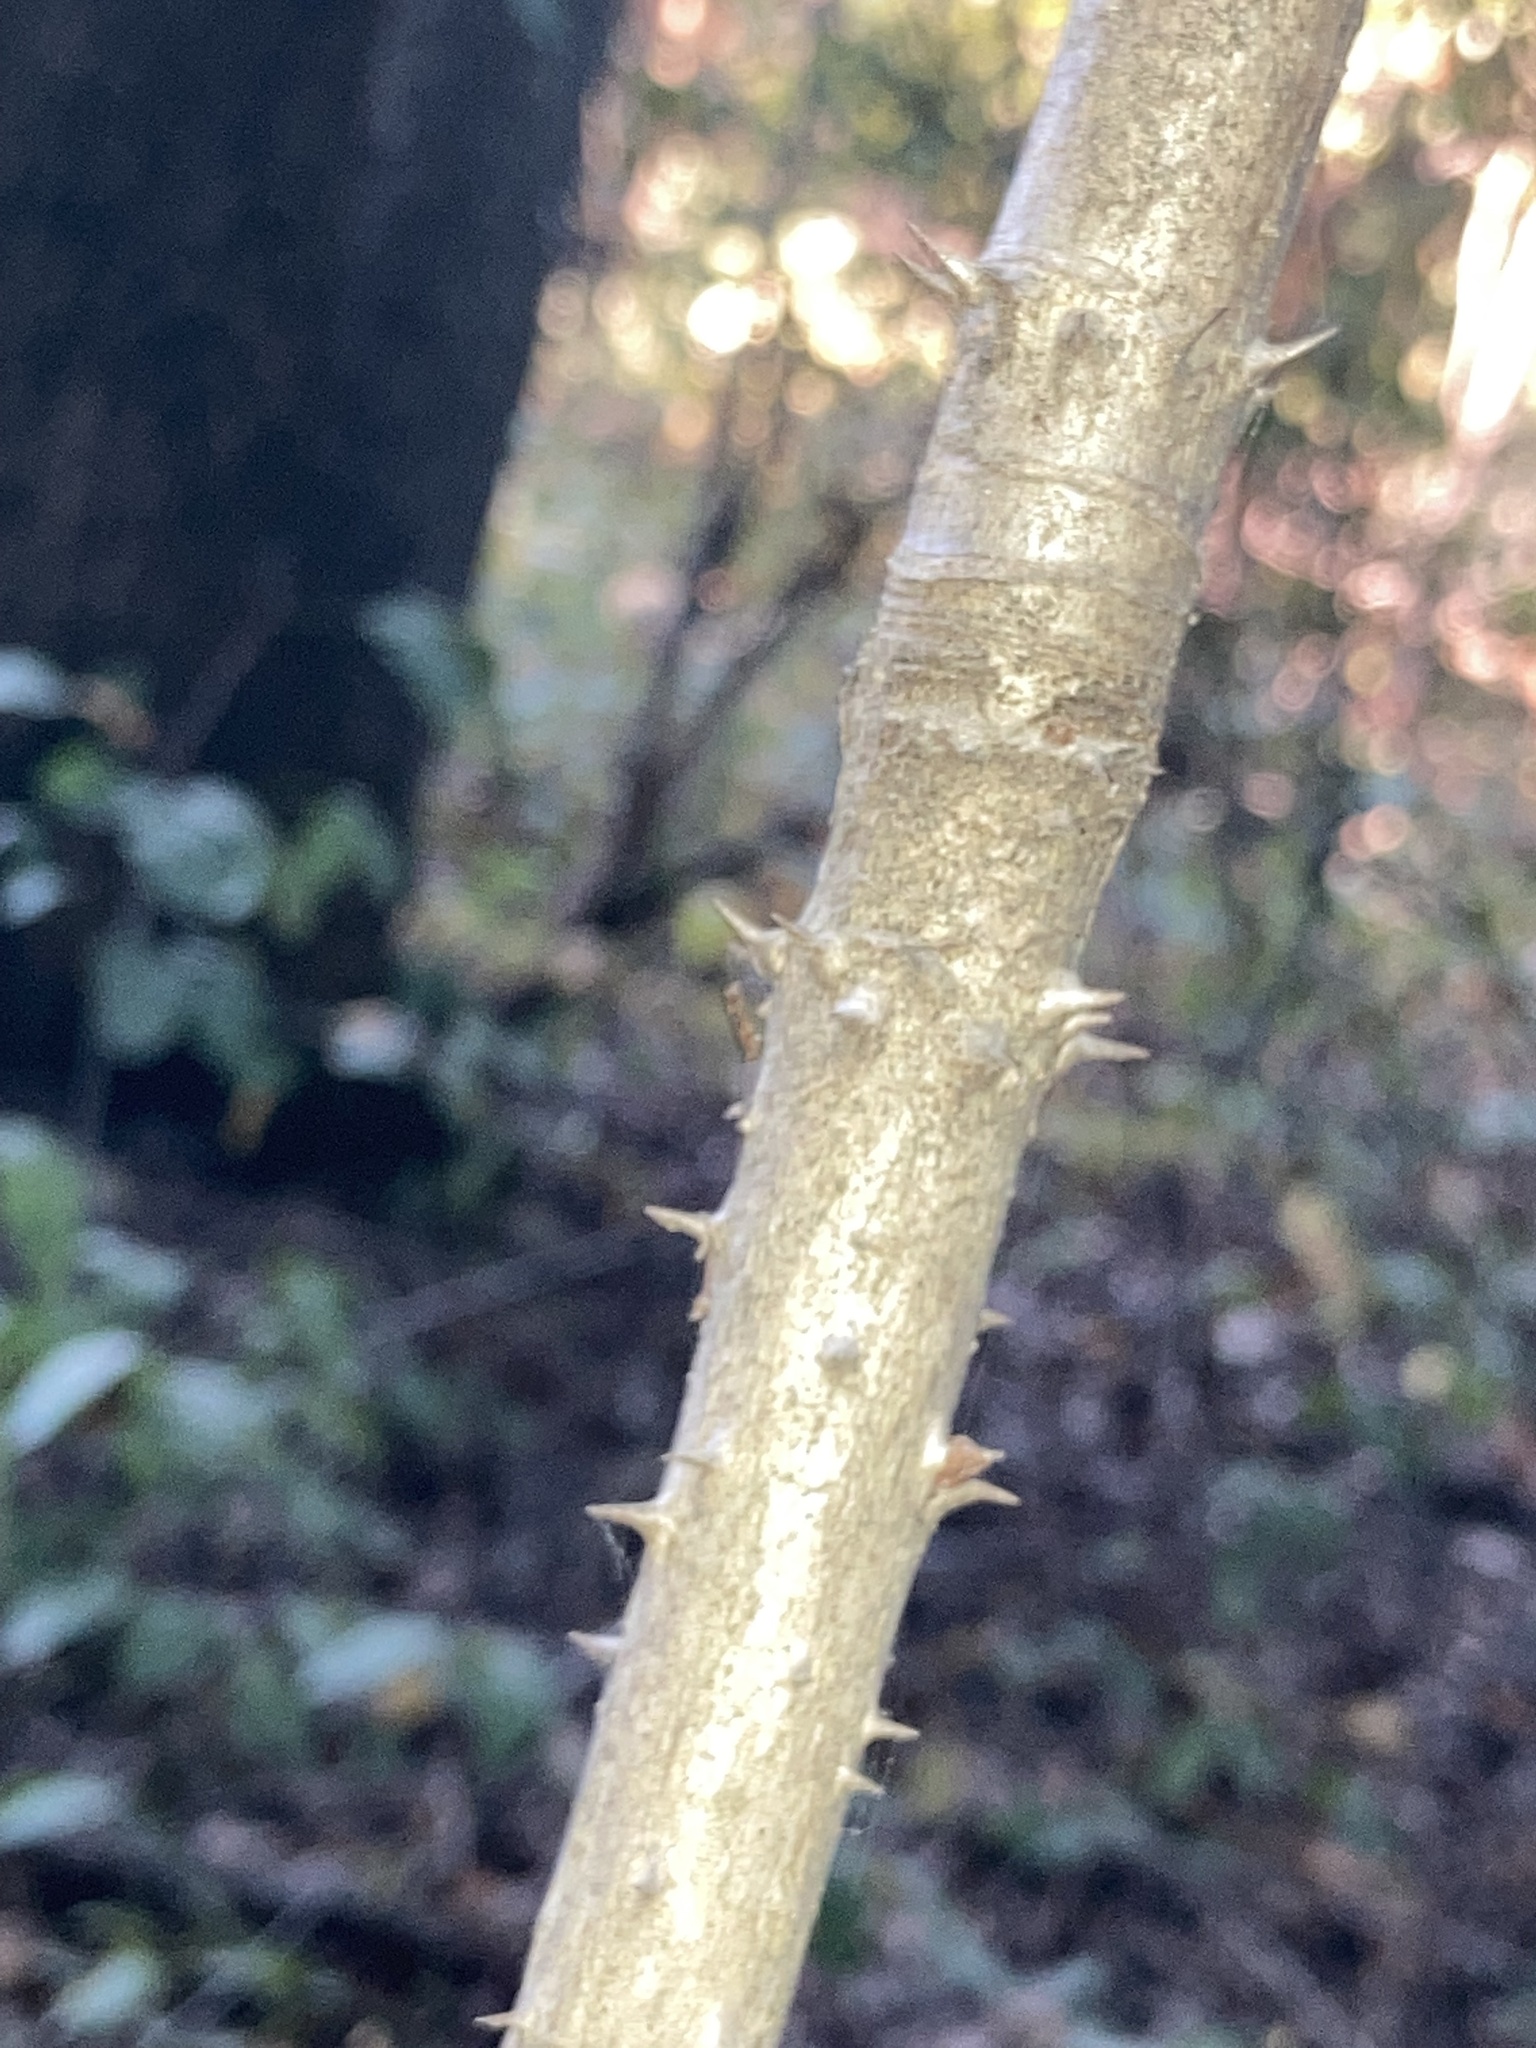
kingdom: Plantae
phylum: Tracheophyta
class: Magnoliopsida
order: Apiales
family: Araliaceae
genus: Aralia
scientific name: Aralia spinosa
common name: Hercules'-club
